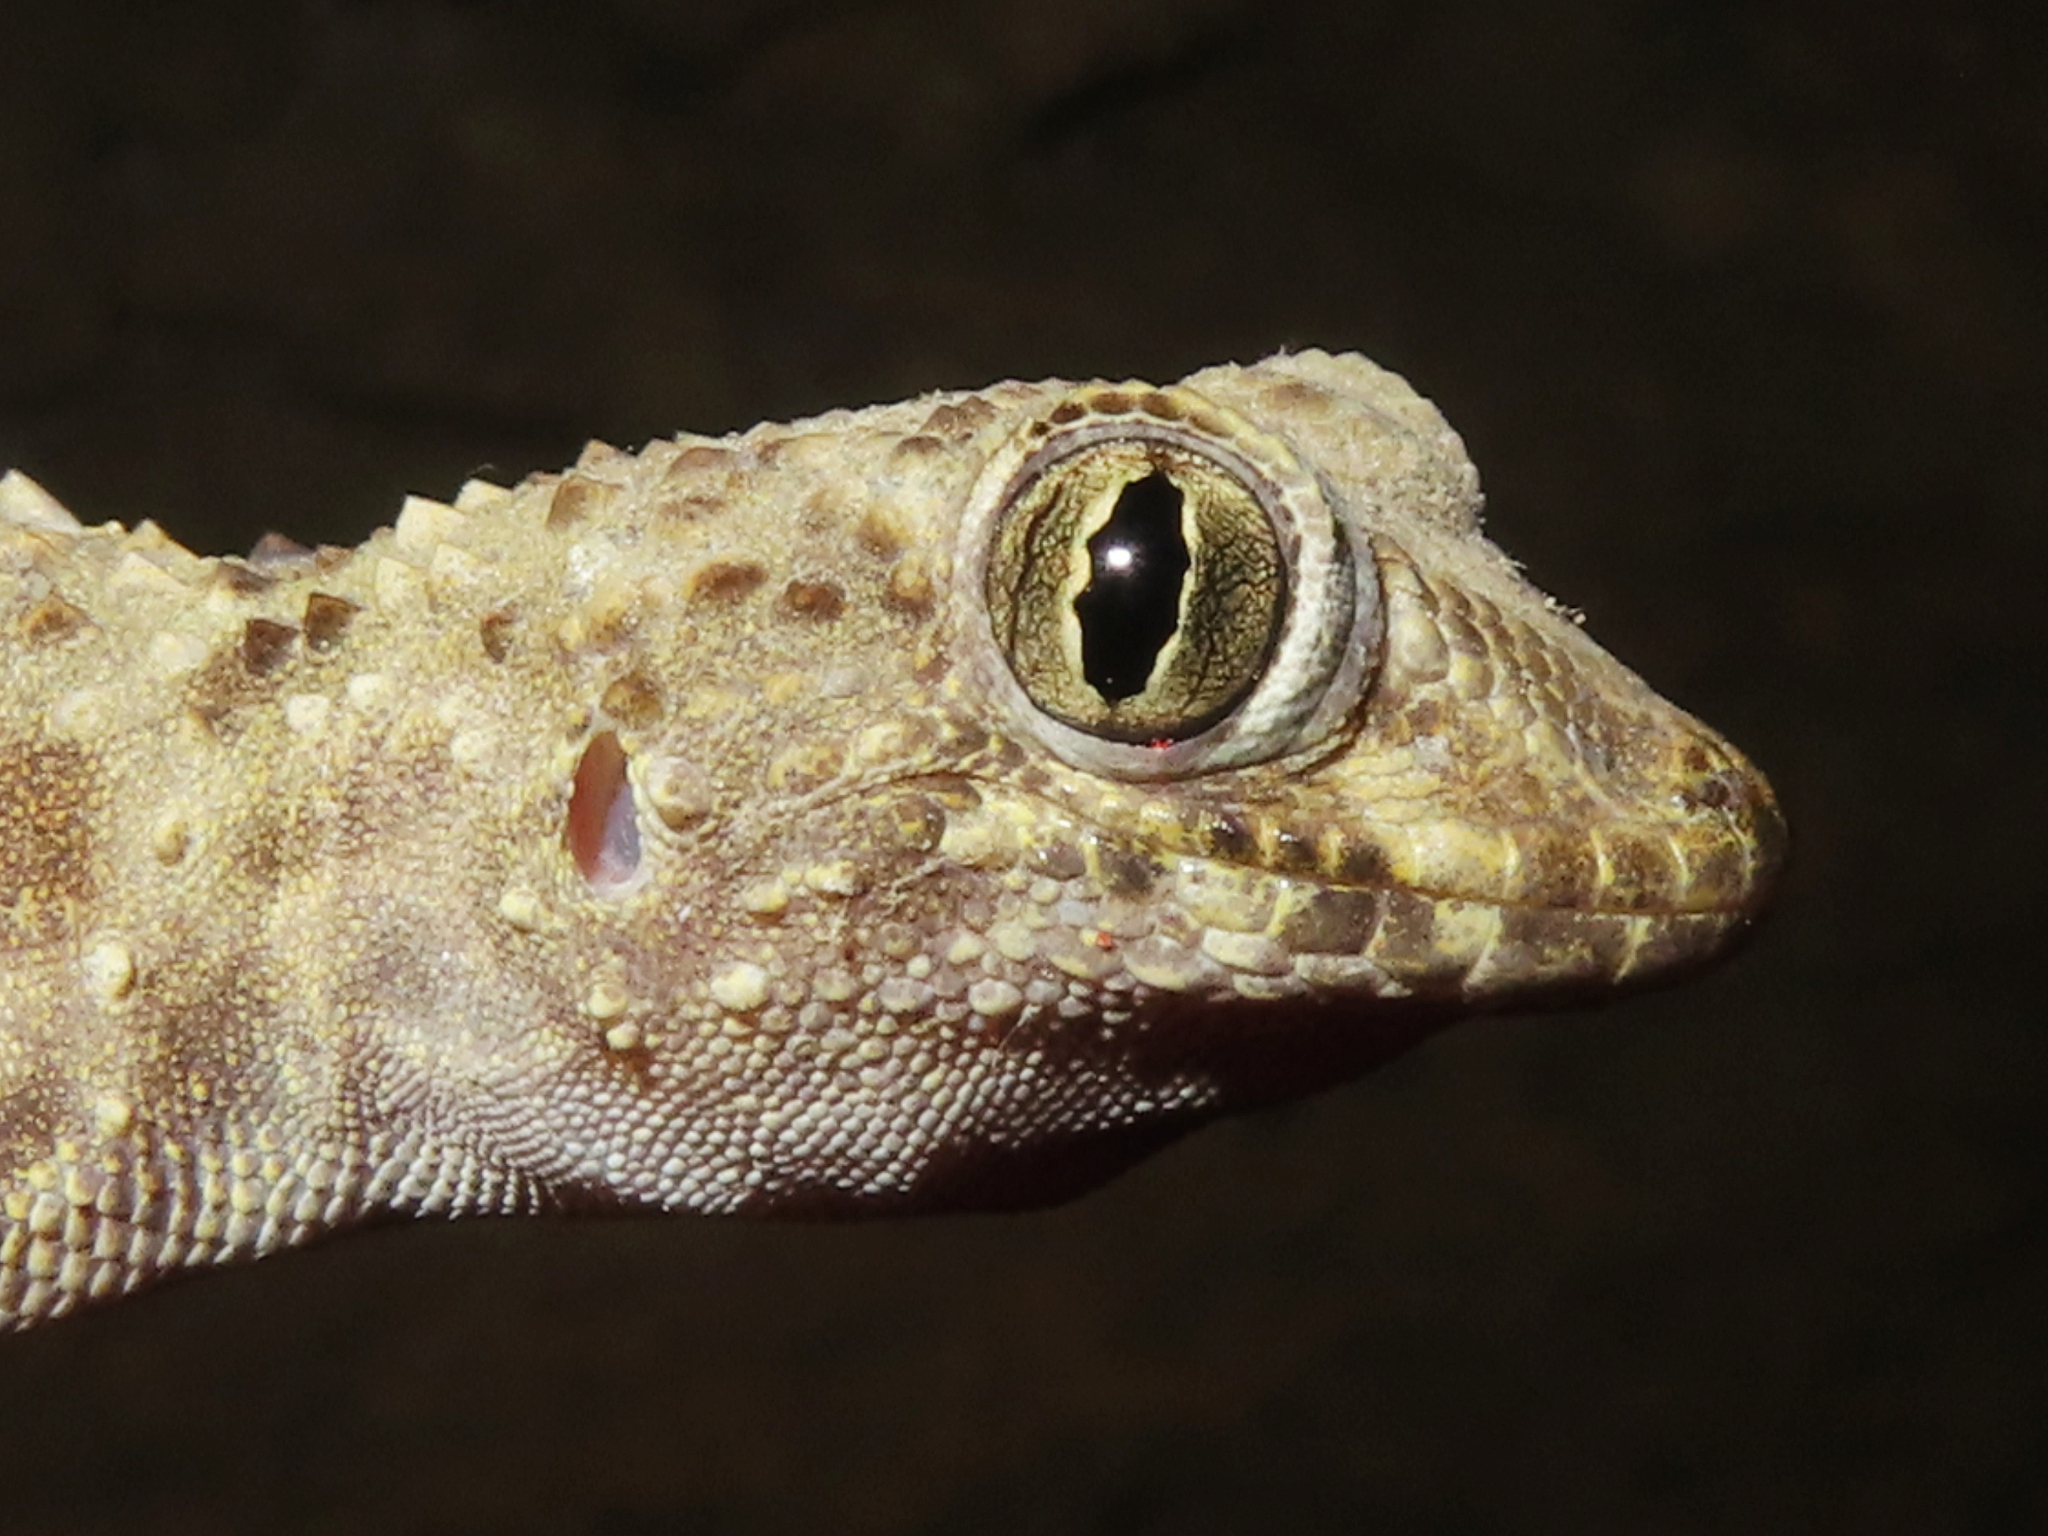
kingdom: Animalia
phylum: Chordata
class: Squamata
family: Gekkonidae
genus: Tenuidactylus
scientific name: Tenuidactylus caspius
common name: Caspian bent-toed gecko
